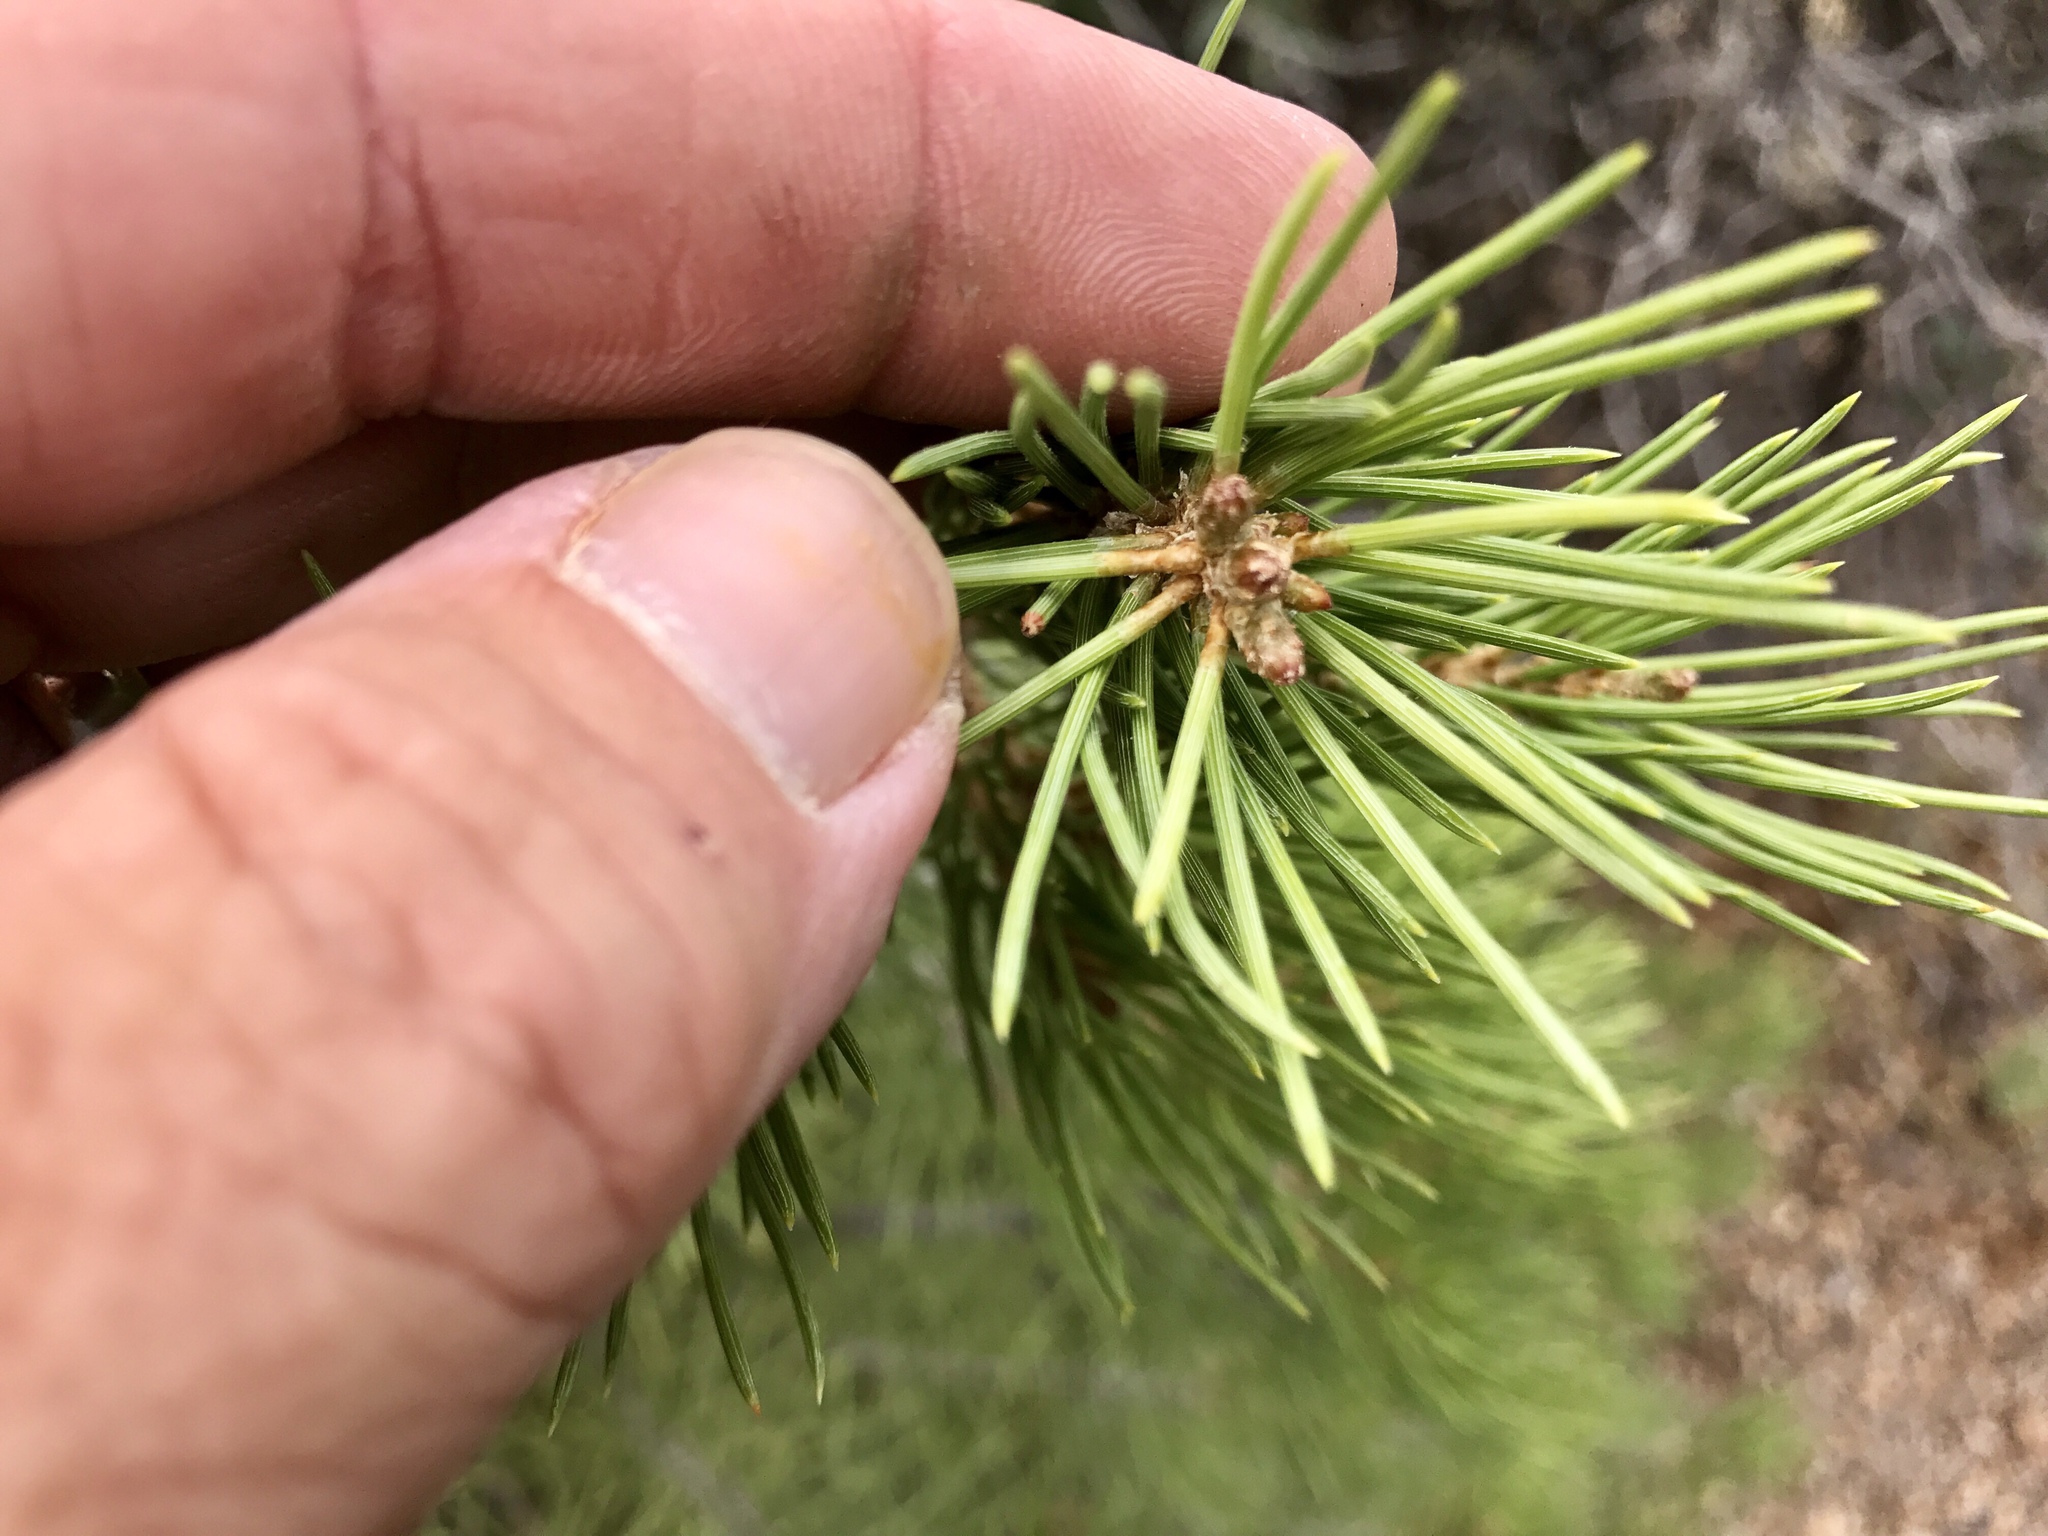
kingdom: Plantae
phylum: Tracheophyta
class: Pinopsida
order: Pinales
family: Pinaceae
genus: Pinus
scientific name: Pinus monophylla
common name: One-leaved nut pine
